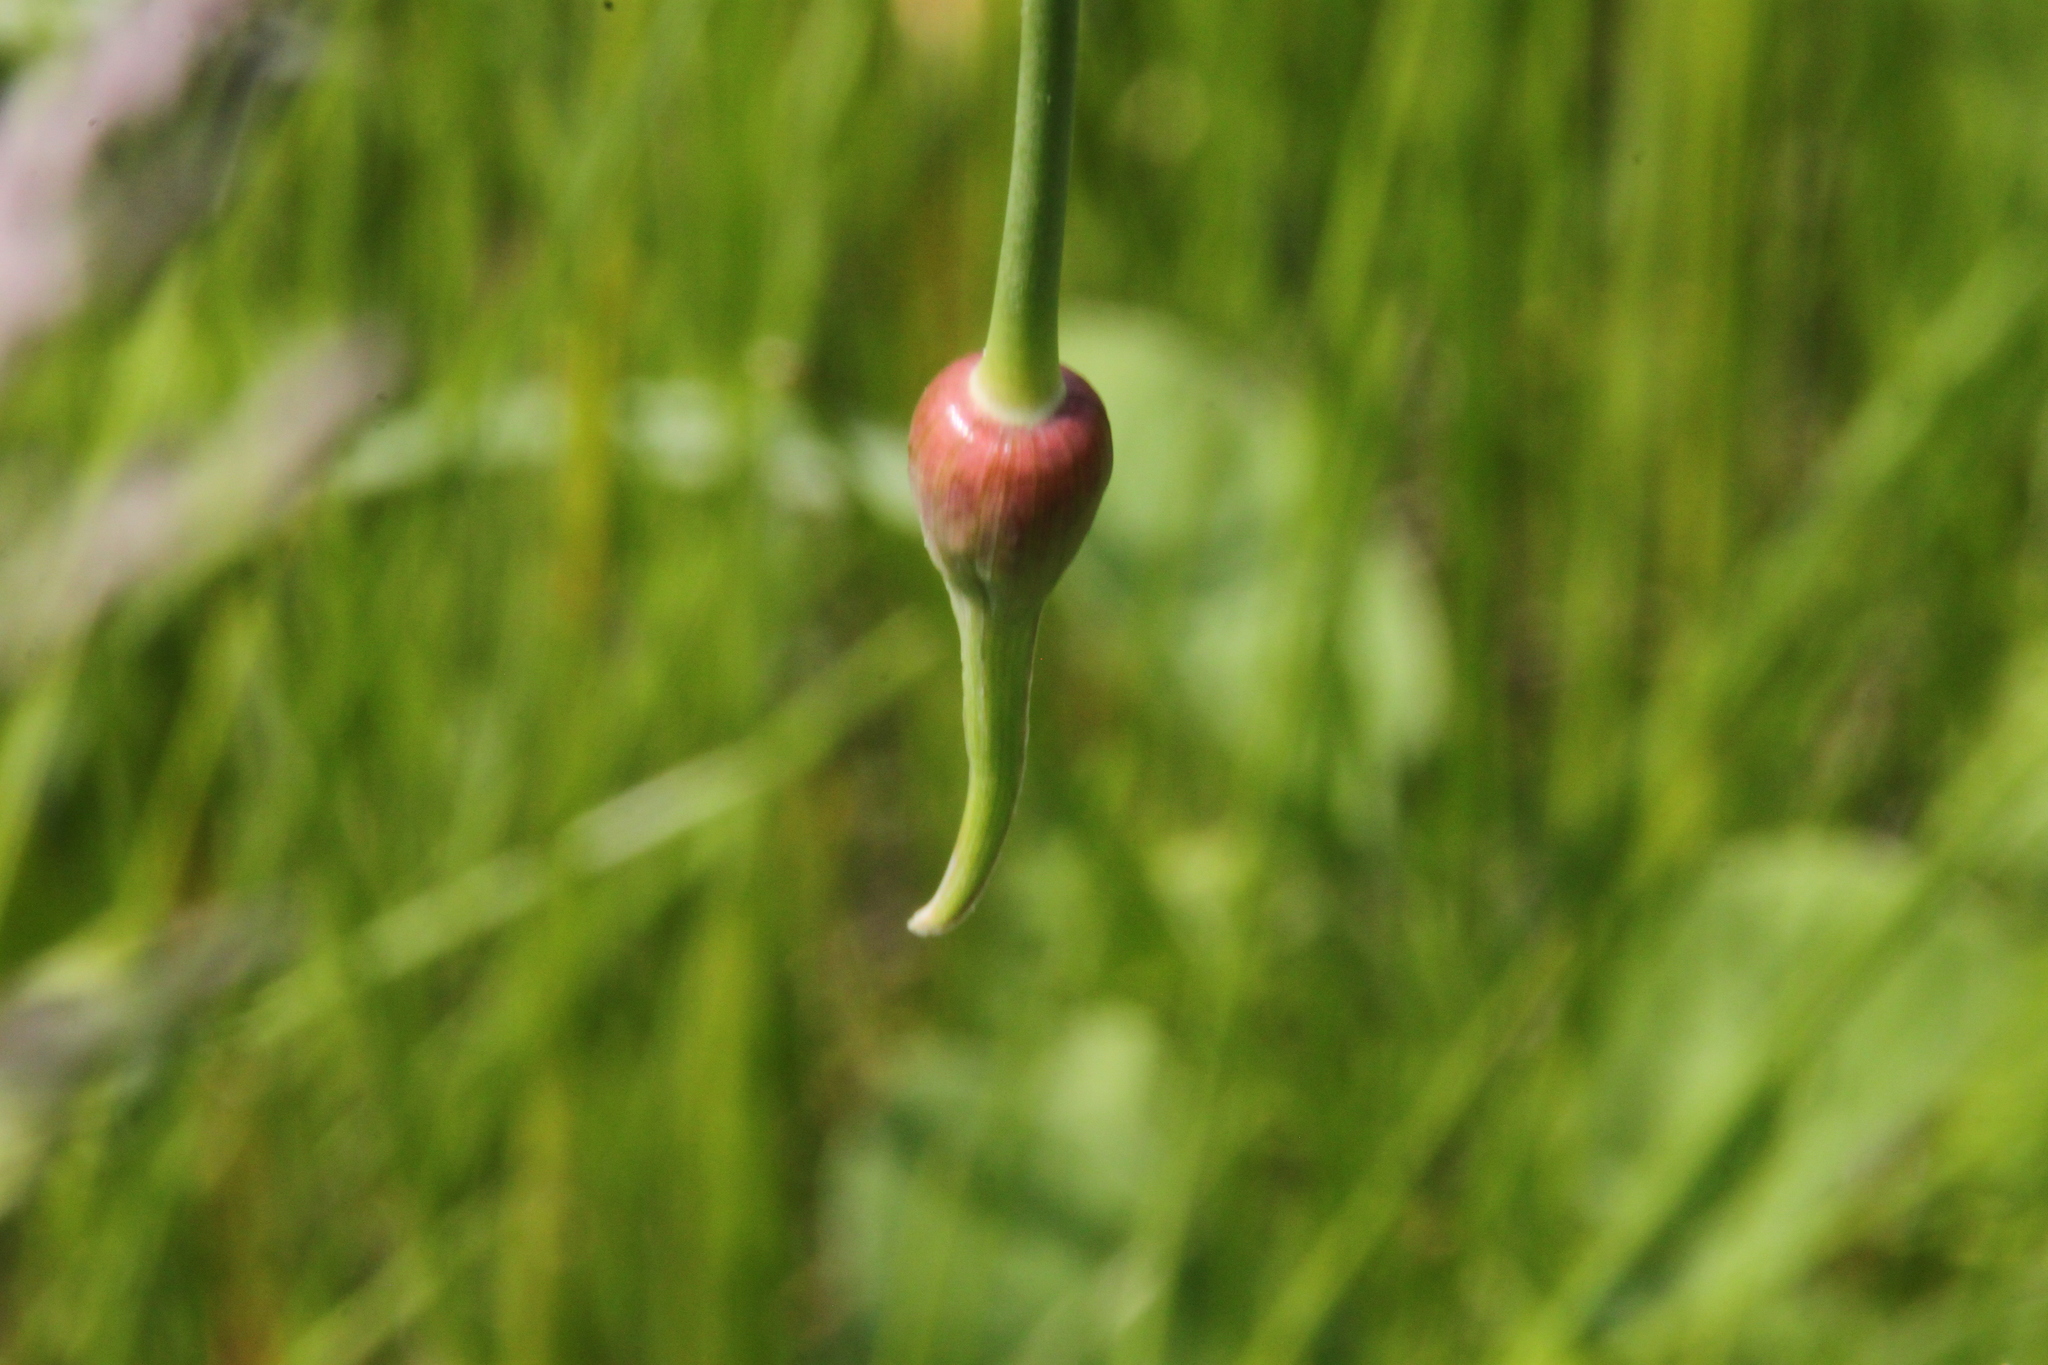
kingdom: Plantae
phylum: Tracheophyta
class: Liliopsida
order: Asparagales
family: Amaryllidaceae
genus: Allium
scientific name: Allium rotundum
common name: Sand leek
